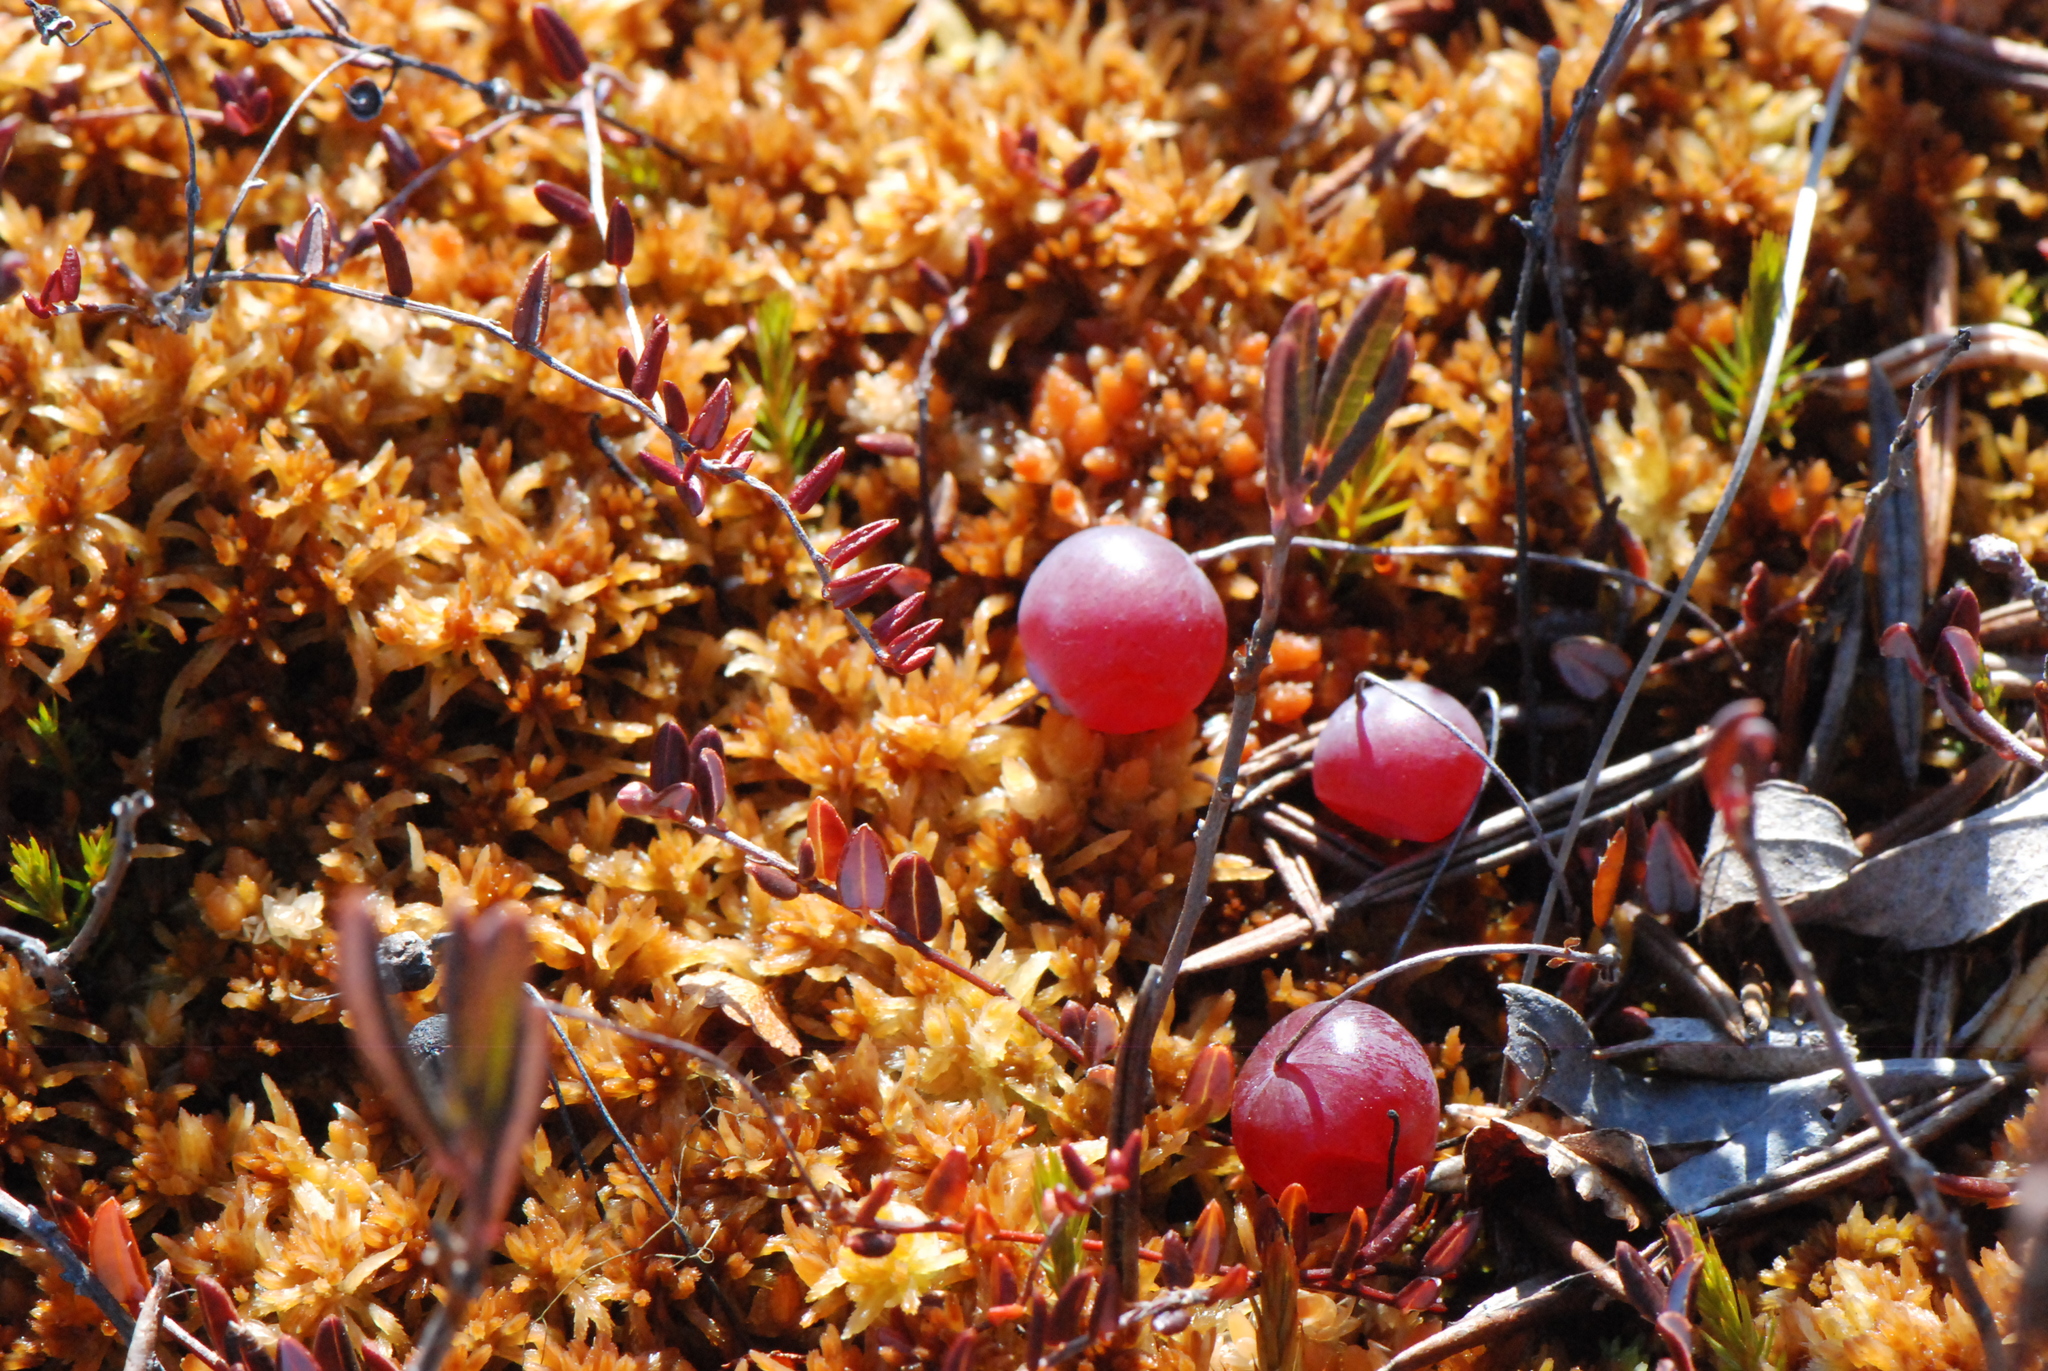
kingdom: Plantae
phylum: Tracheophyta
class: Magnoliopsida
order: Ericales
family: Ericaceae
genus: Vaccinium
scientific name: Vaccinium oxycoccos
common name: Cranberry
